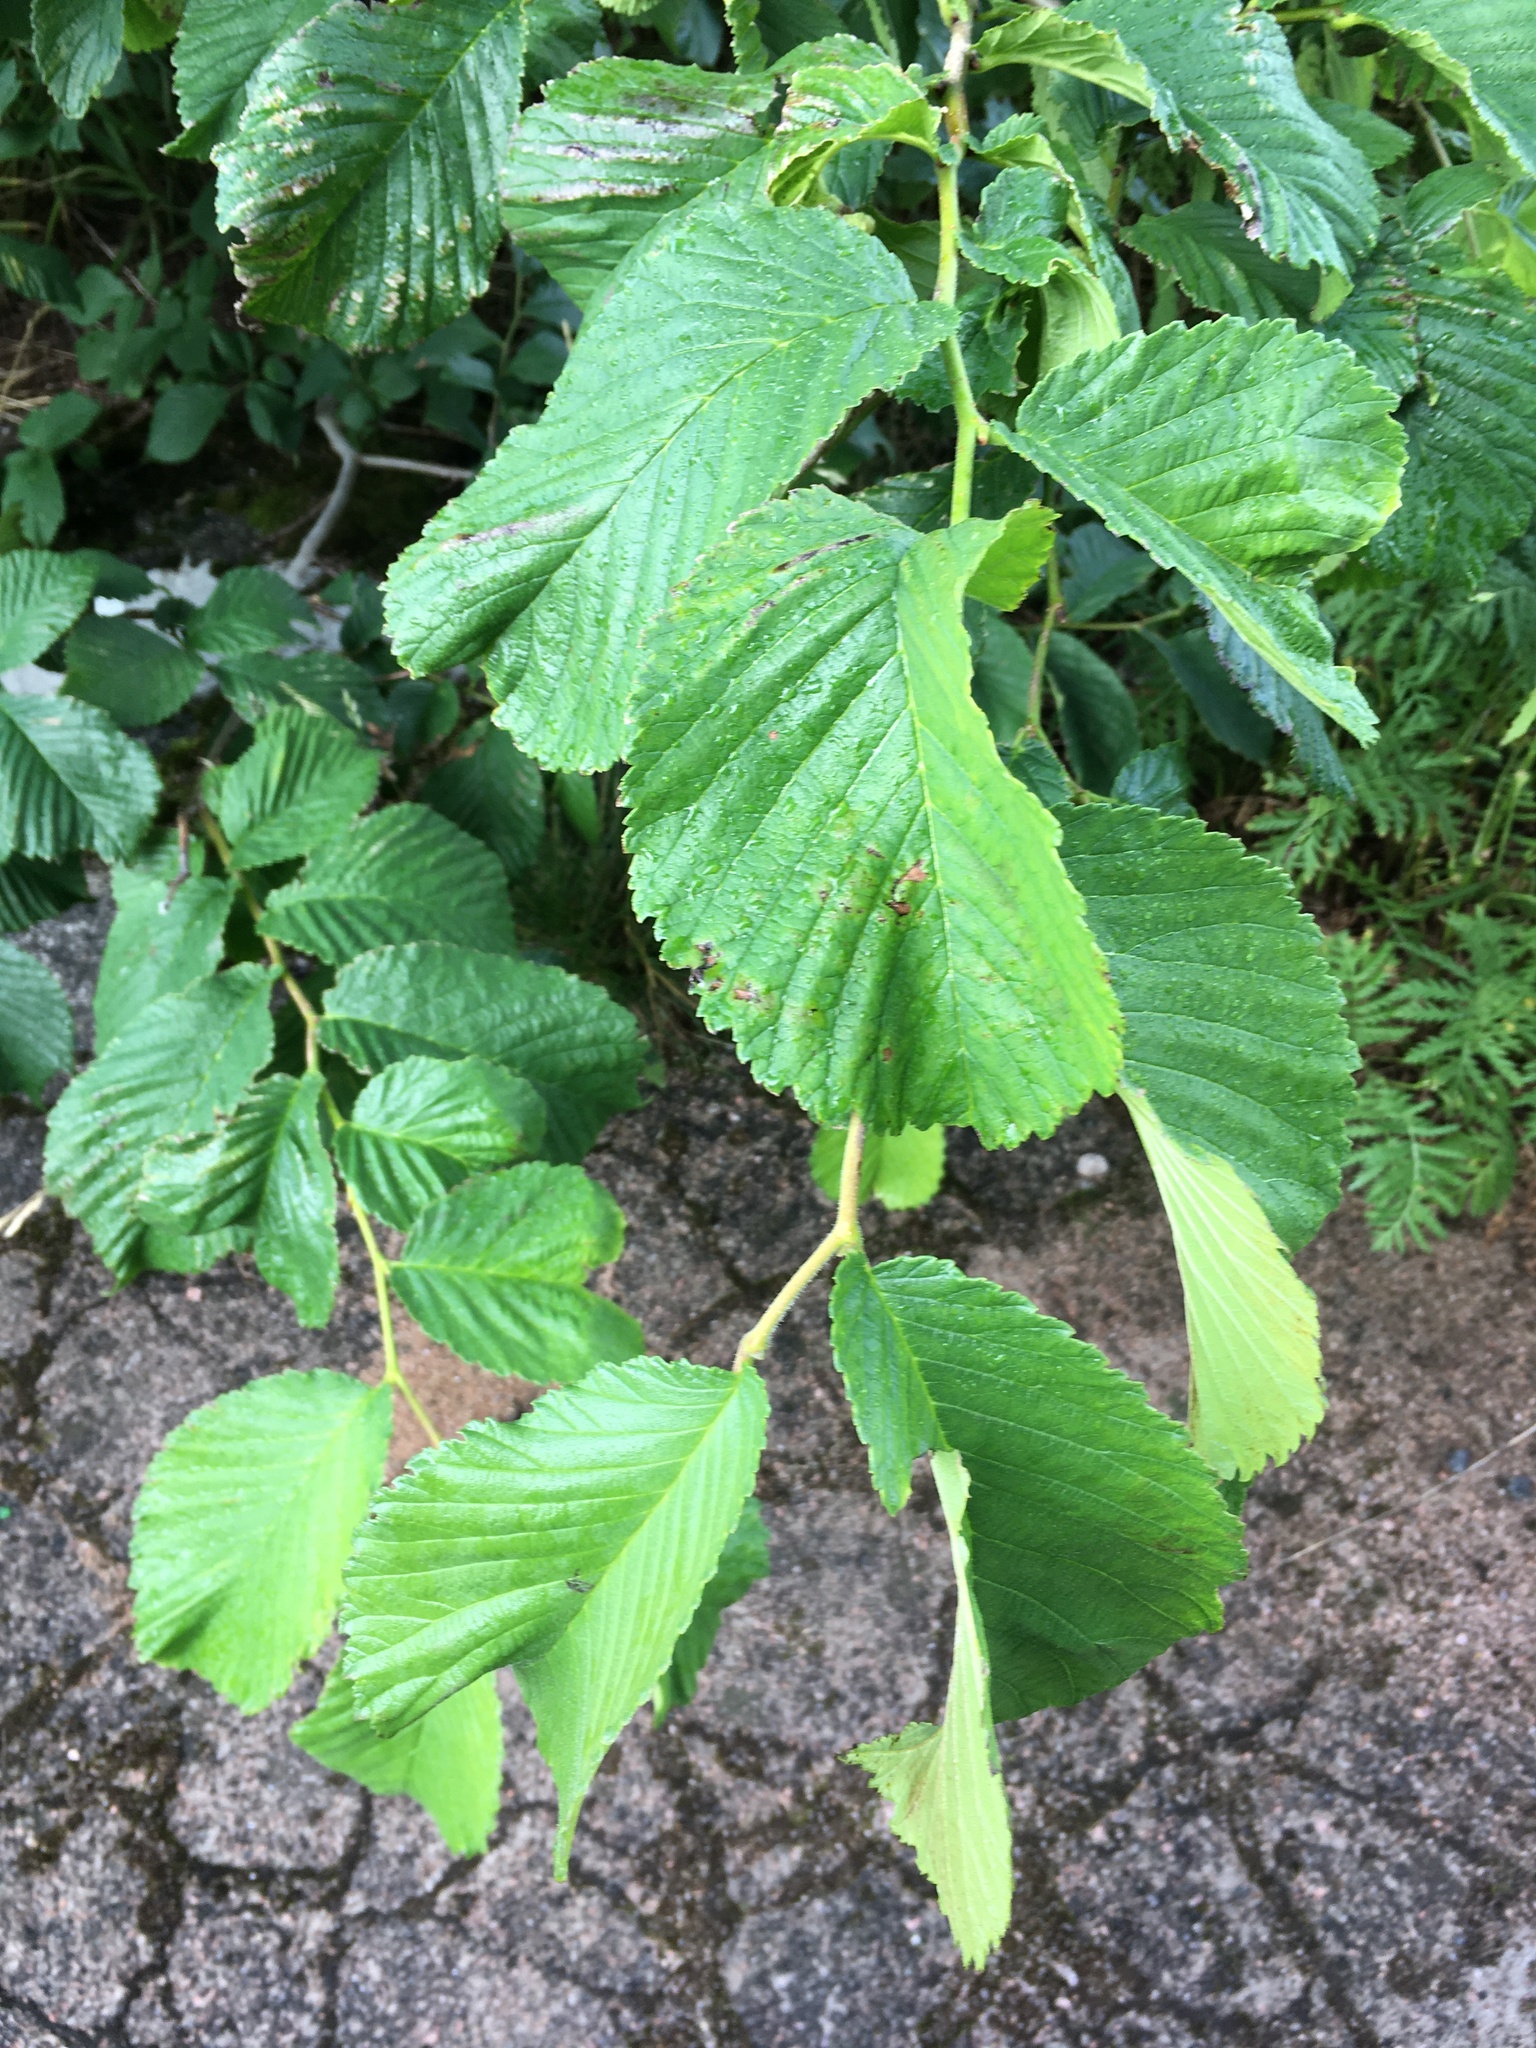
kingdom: Plantae
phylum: Tracheophyta
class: Magnoliopsida
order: Rosales
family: Ulmaceae
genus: Ulmus
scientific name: Ulmus glabra
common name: Wych elm
